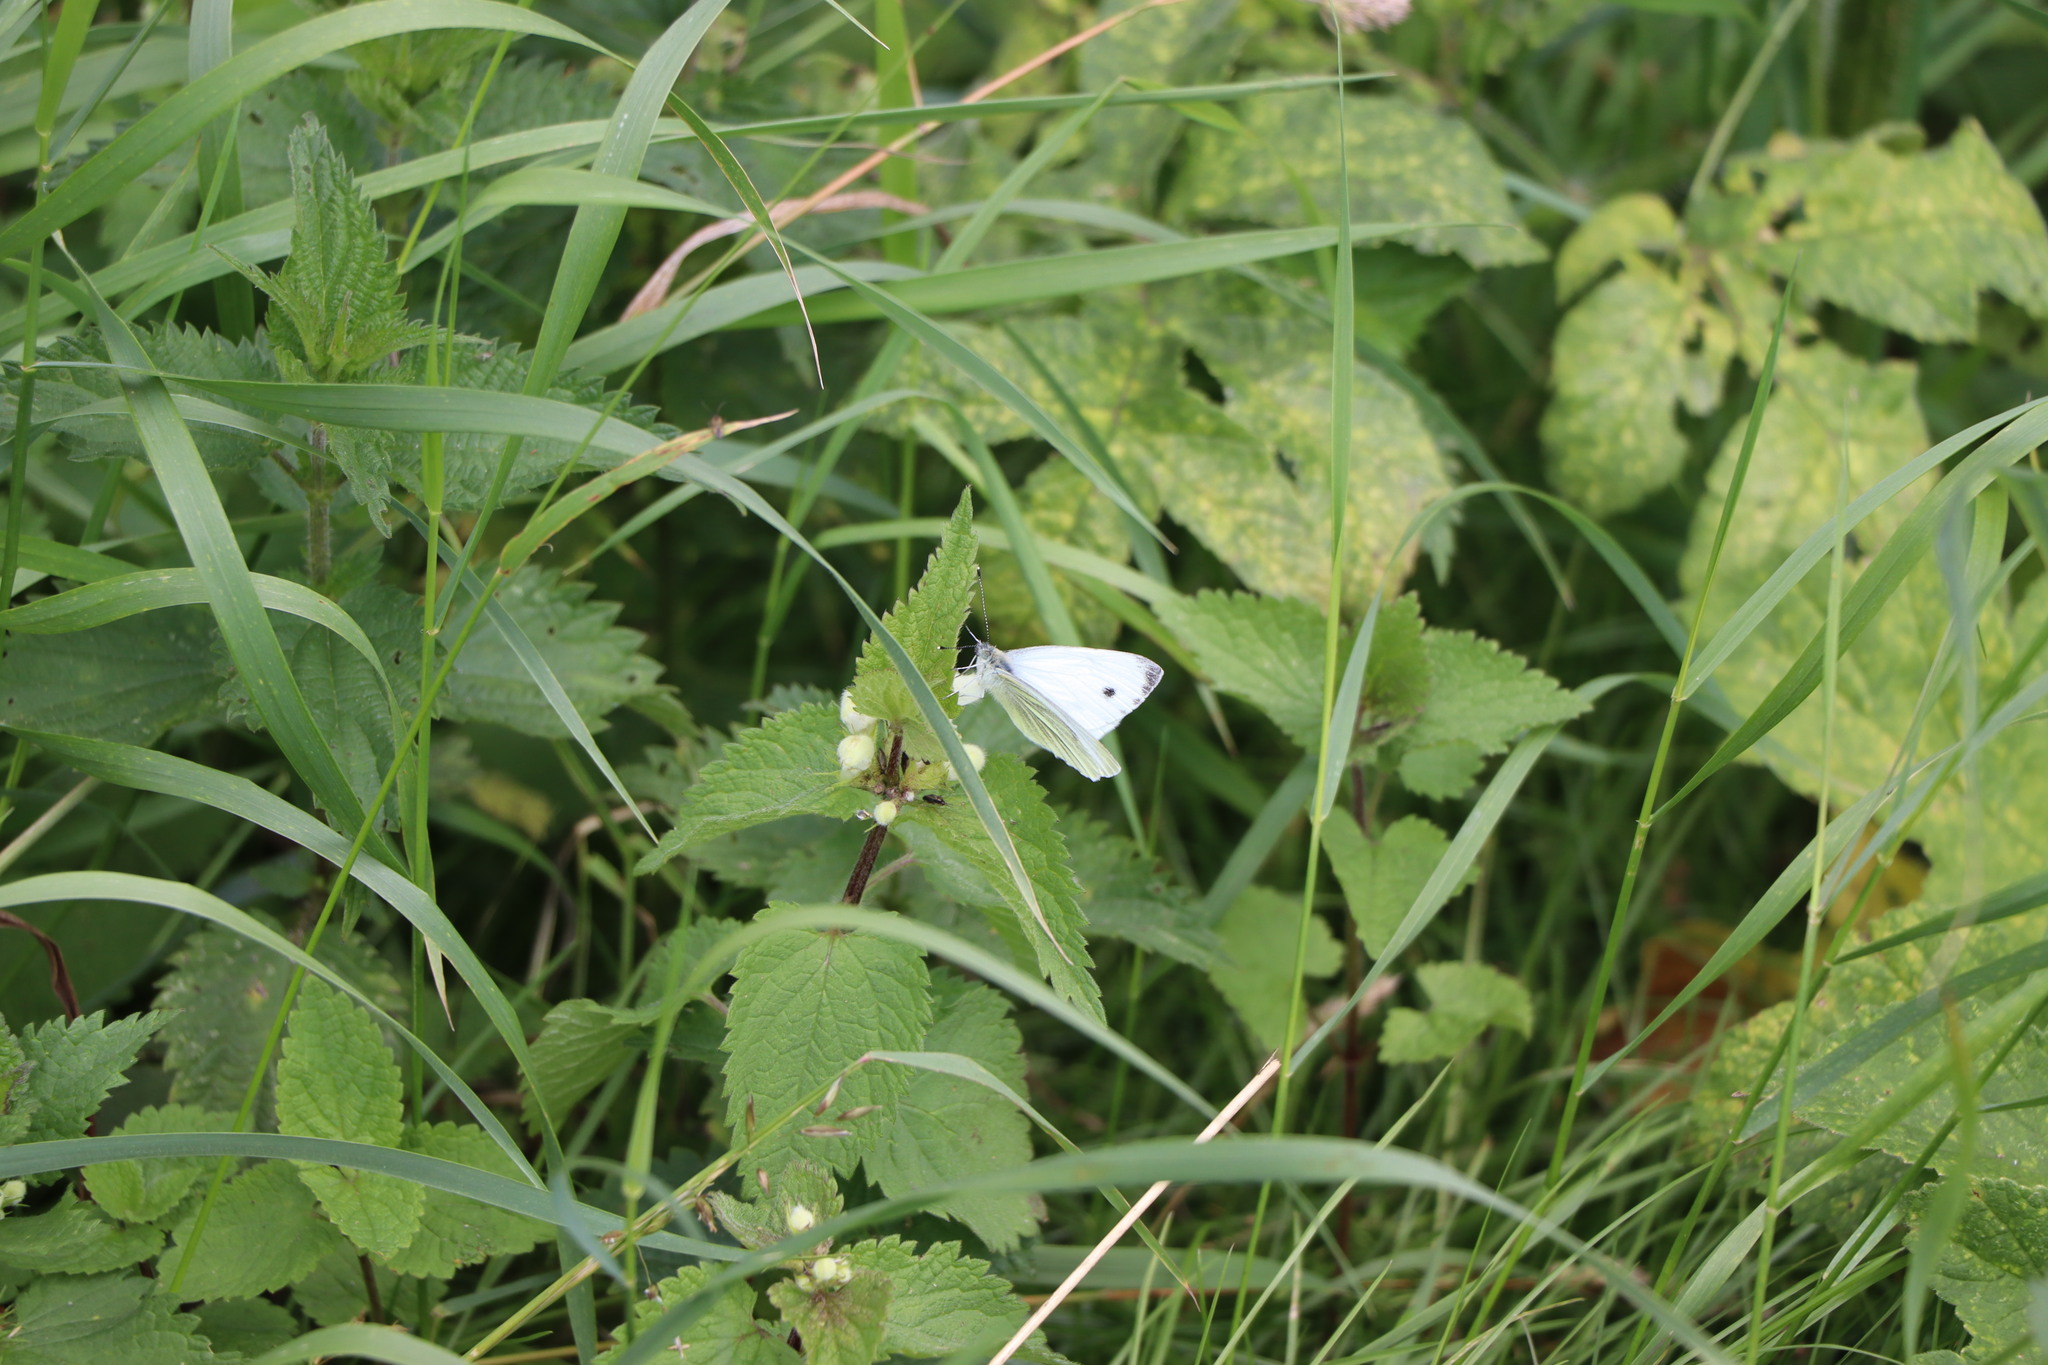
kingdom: Animalia
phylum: Arthropoda
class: Insecta
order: Lepidoptera
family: Pieridae
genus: Pieris
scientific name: Pieris napi
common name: Green-veined white
